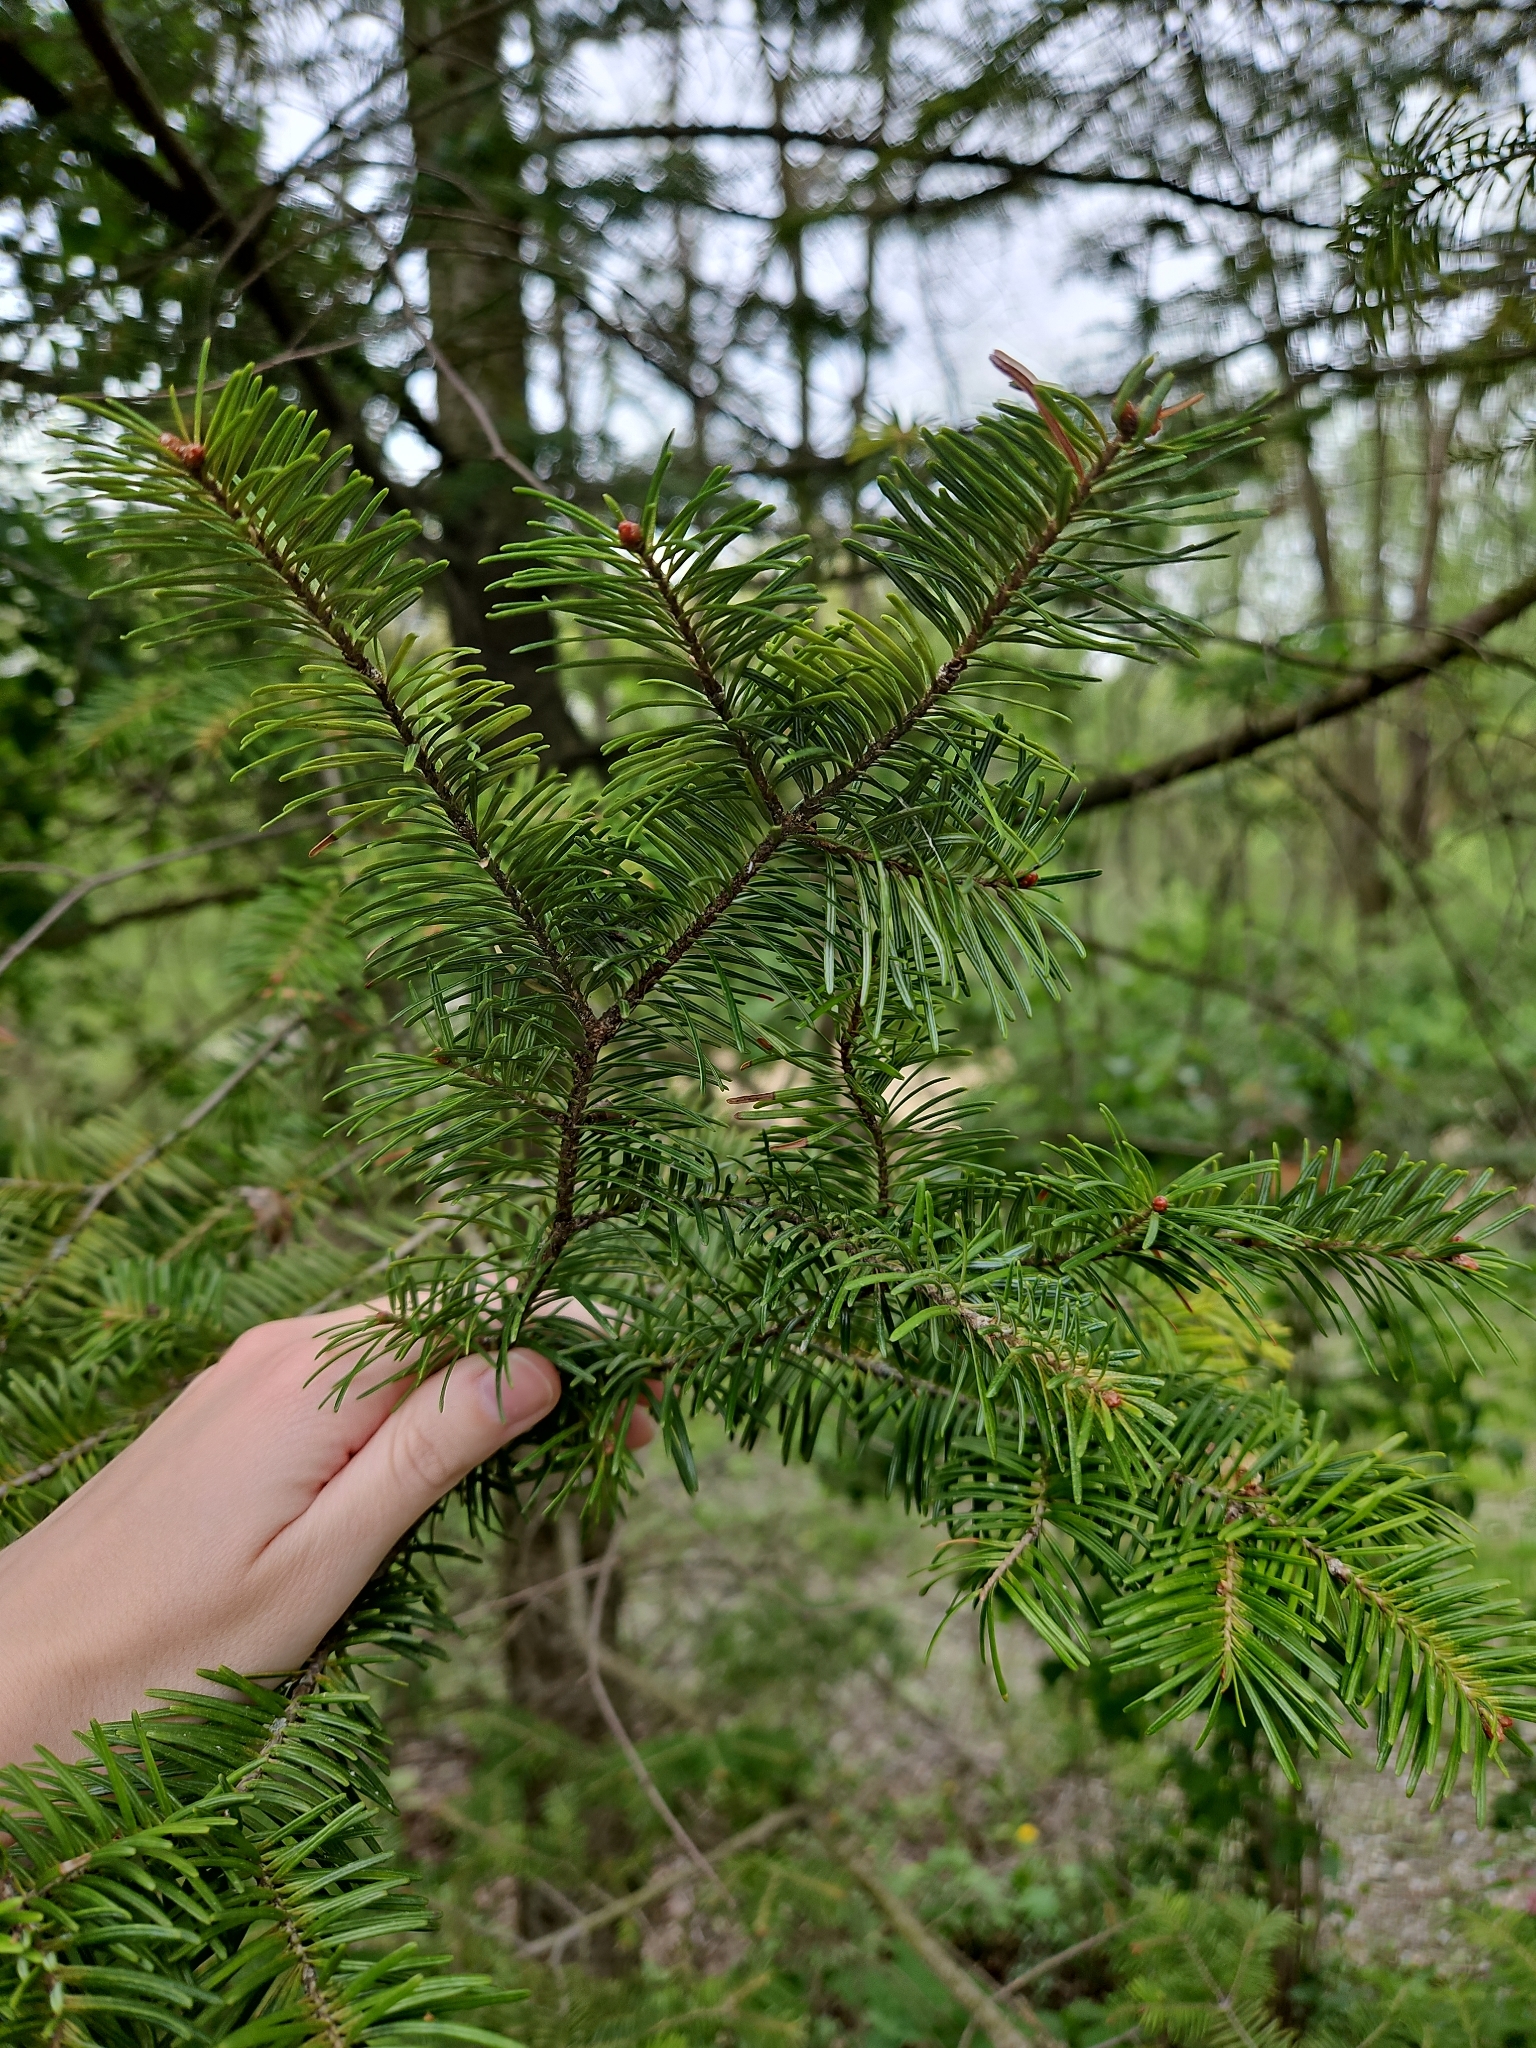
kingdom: Plantae
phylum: Tracheophyta
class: Pinopsida
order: Pinales
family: Pinaceae
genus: Abies
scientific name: Abies balsamea
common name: Balsam fir
